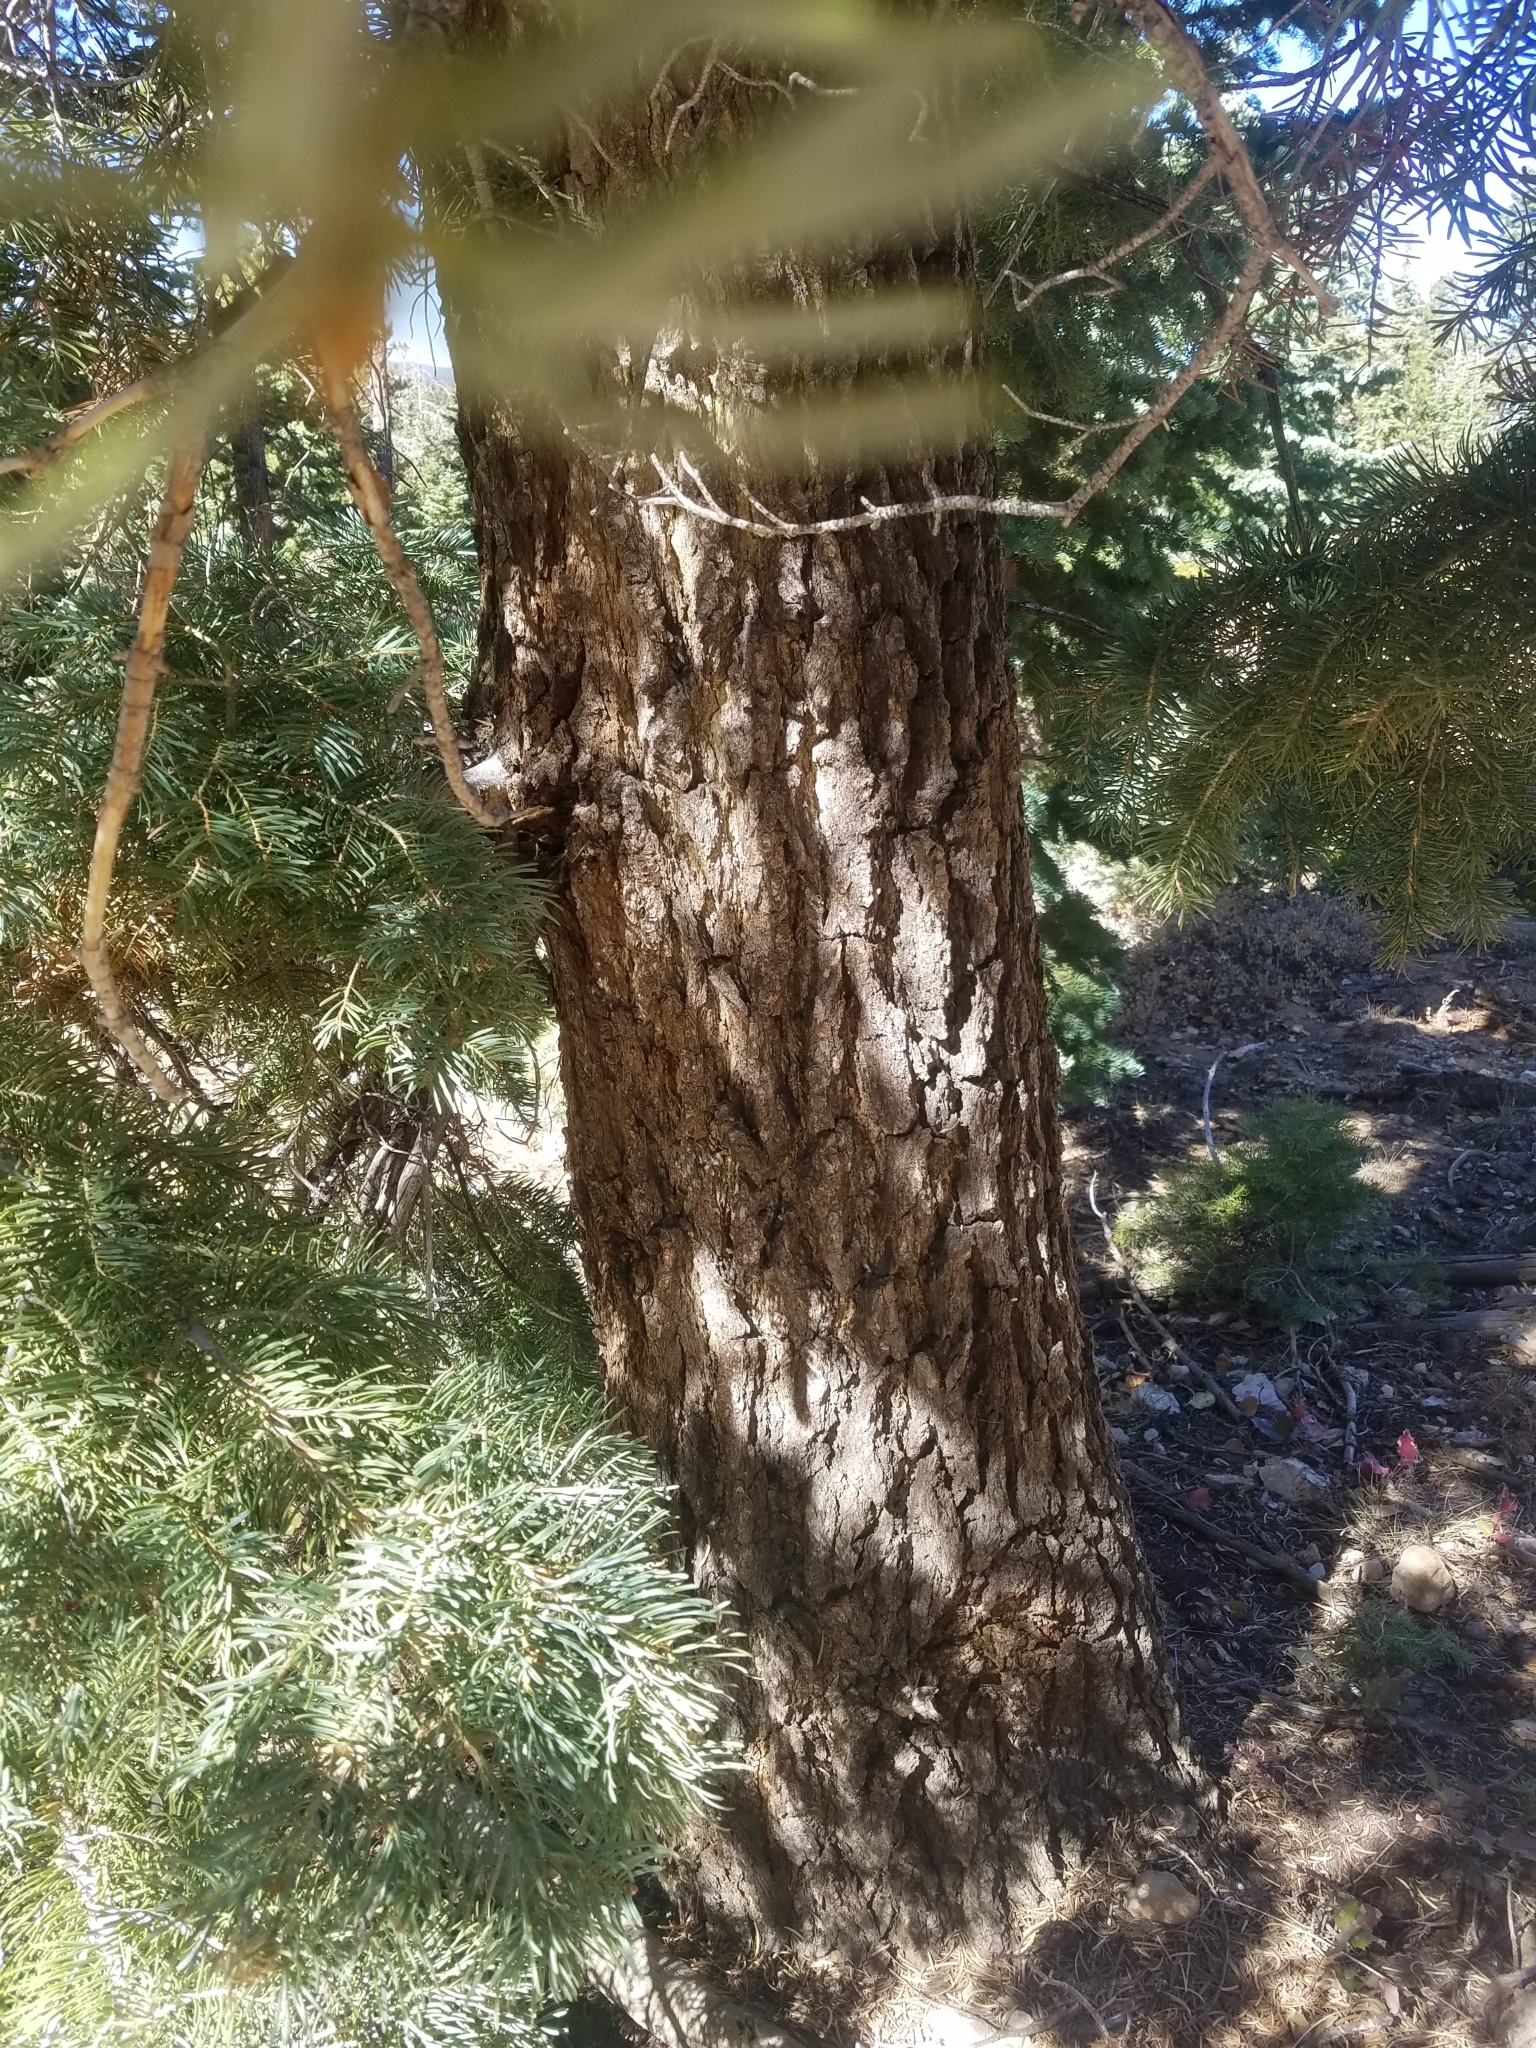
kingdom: Plantae
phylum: Tracheophyta
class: Pinopsida
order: Pinales
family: Pinaceae
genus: Abies
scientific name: Abies concolor
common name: Colorado fir
